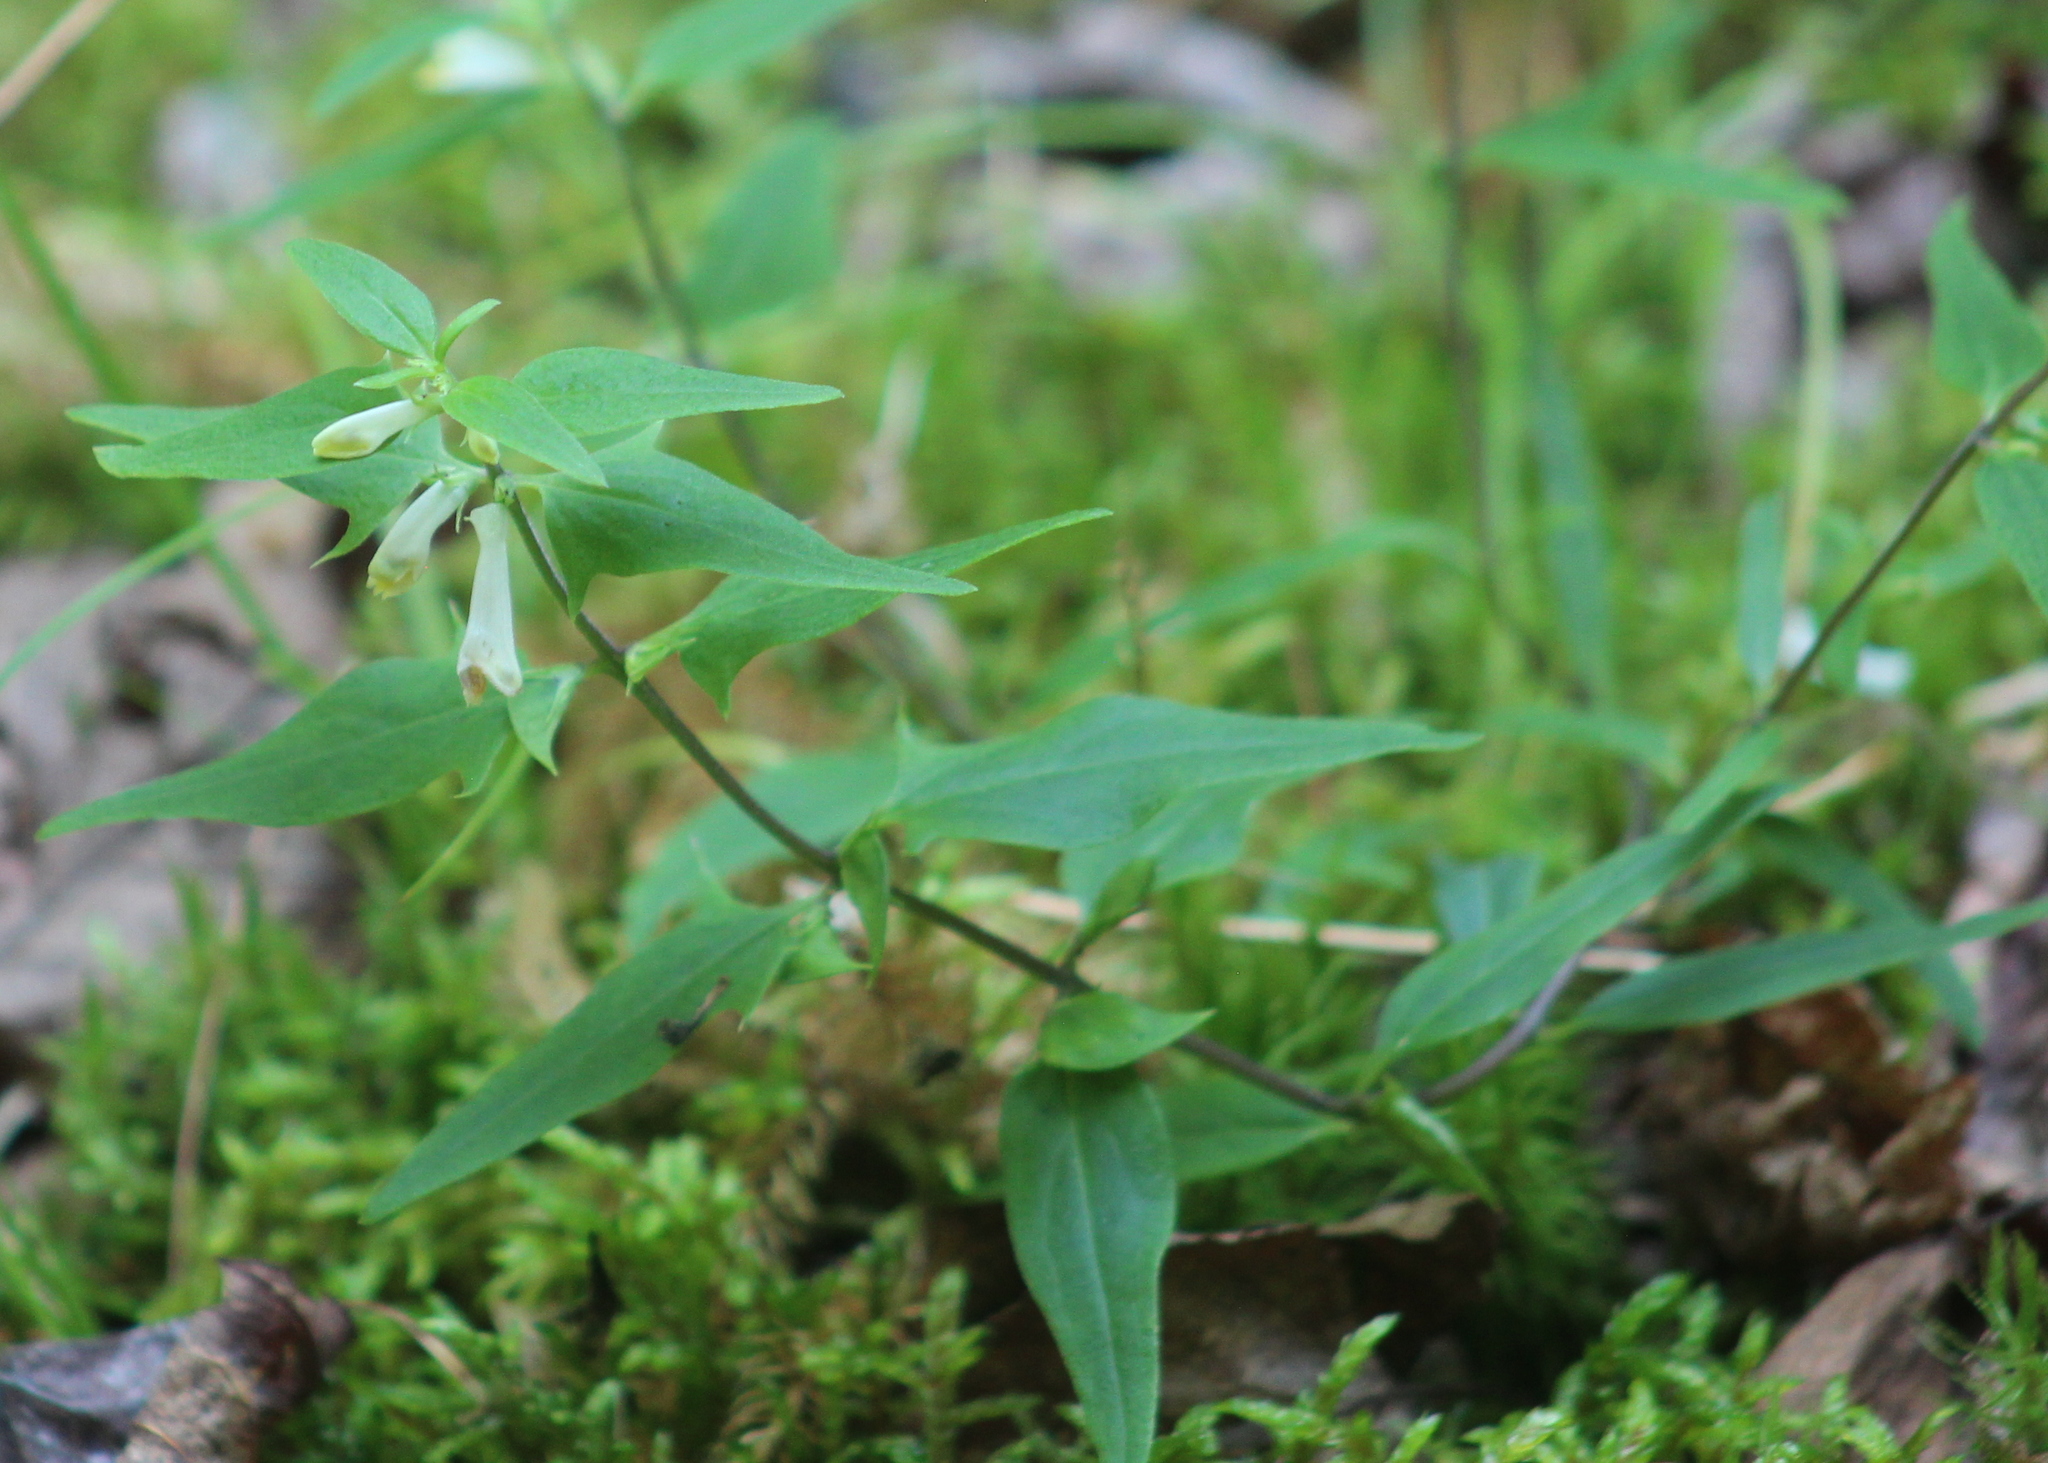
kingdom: Plantae
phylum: Tracheophyta
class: Magnoliopsida
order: Lamiales
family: Orobanchaceae
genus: Melampyrum
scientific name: Melampyrum lineare
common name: American cow-wheat
